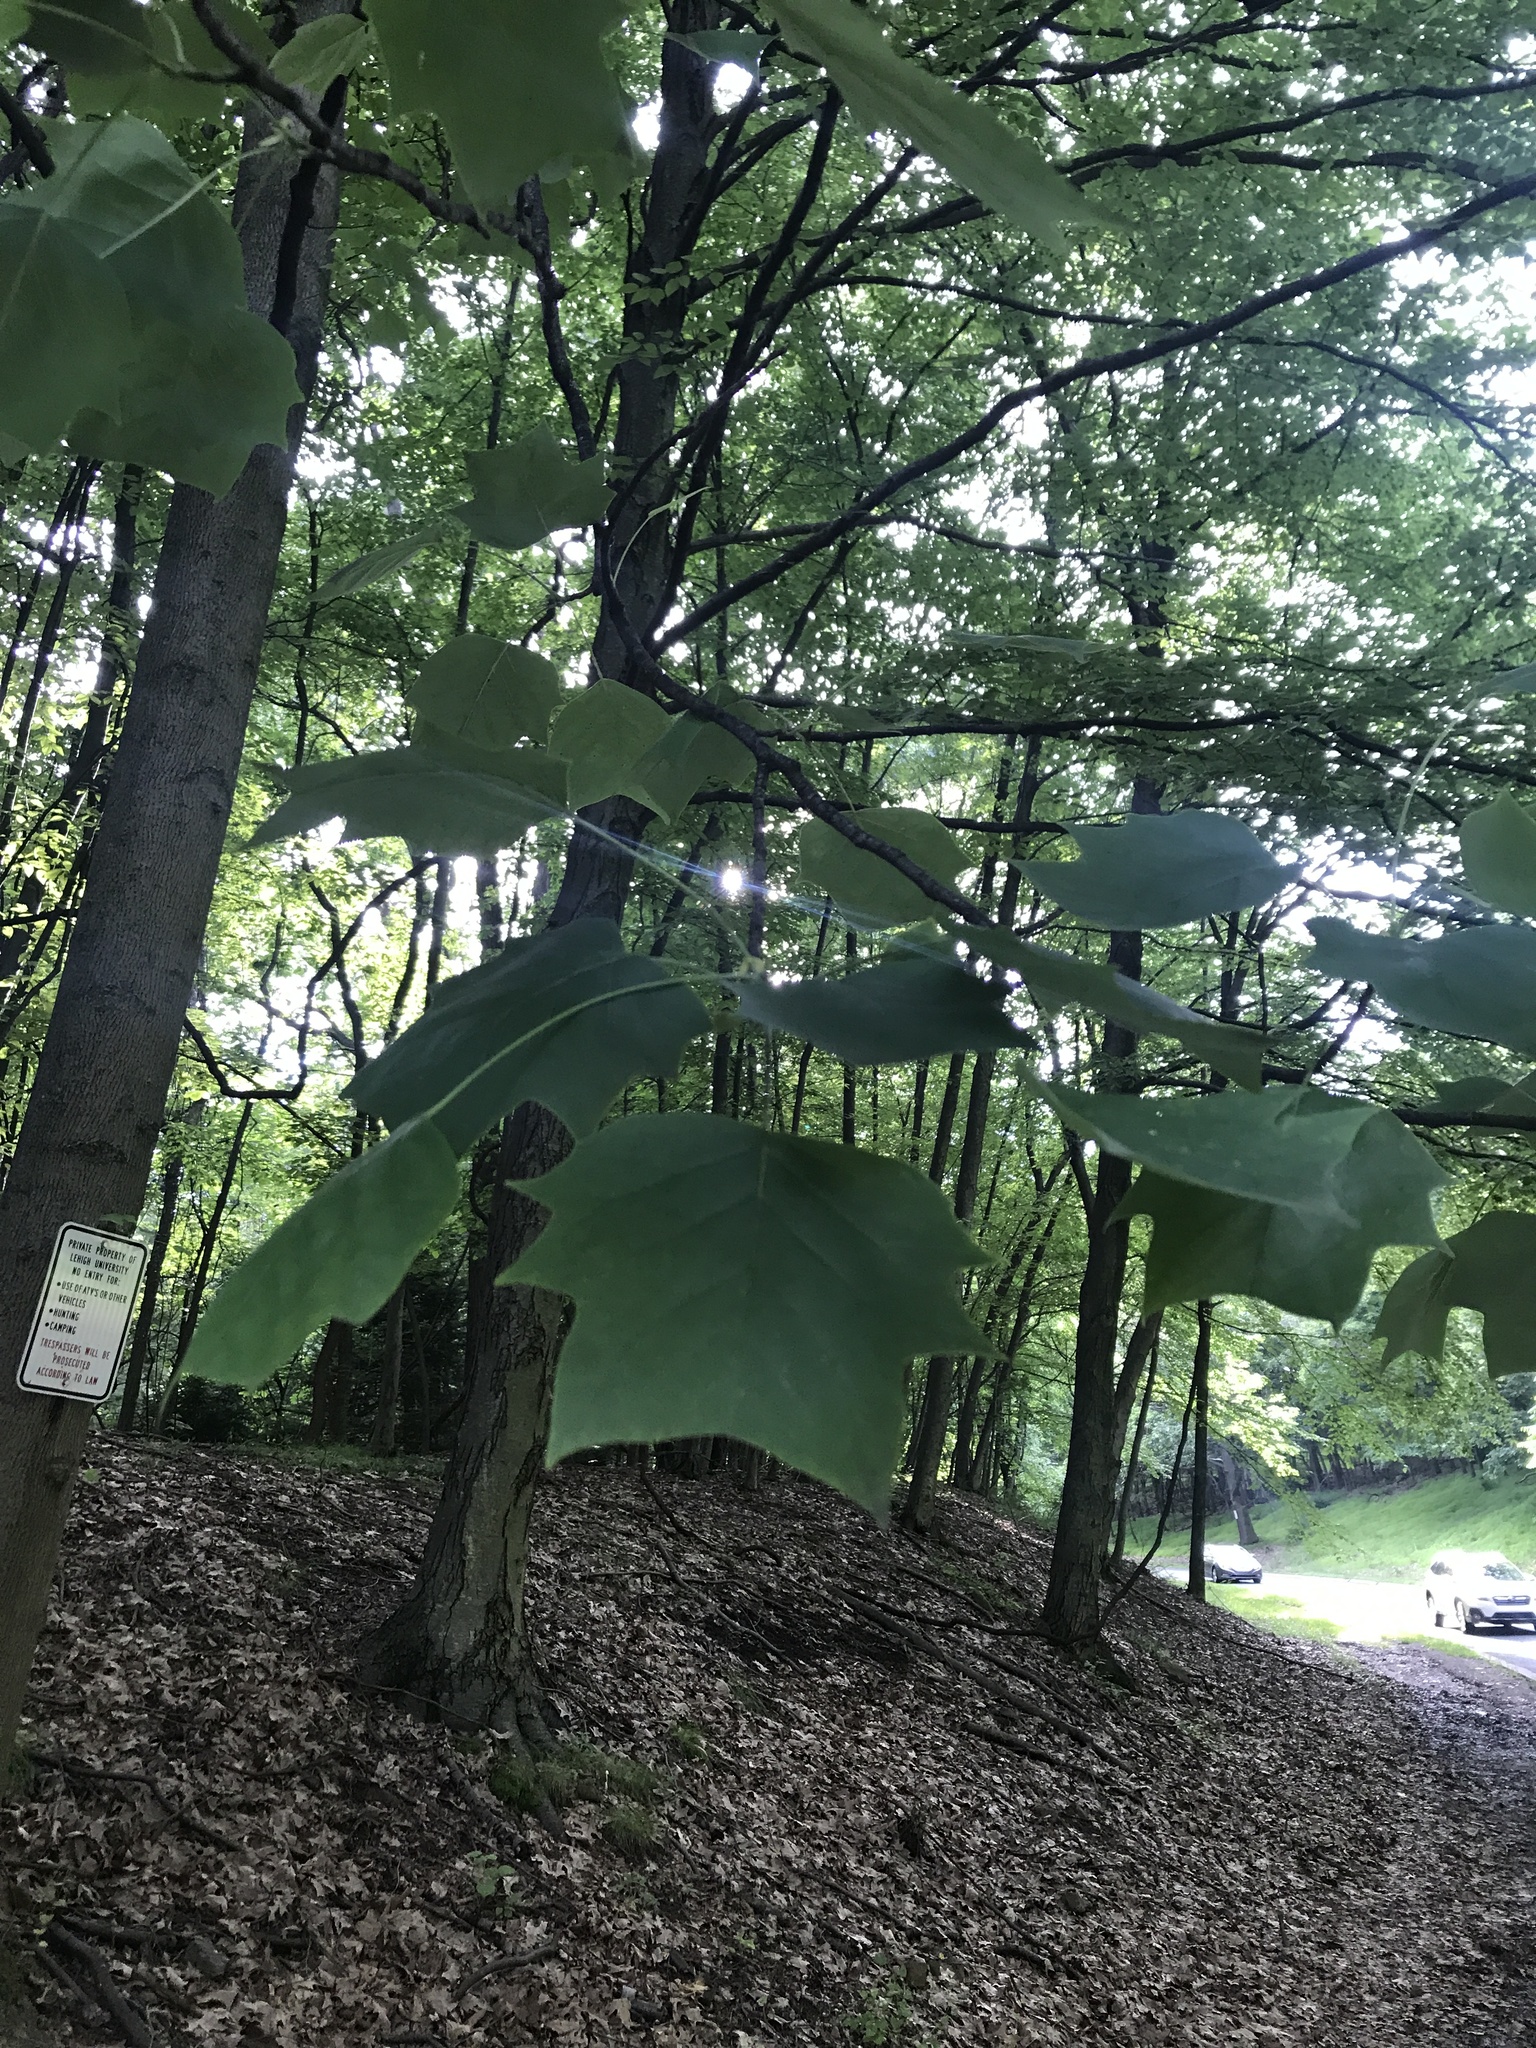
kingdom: Plantae
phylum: Tracheophyta
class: Magnoliopsida
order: Magnoliales
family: Magnoliaceae
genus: Liriodendron
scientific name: Liriodendron tulipifera
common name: Tulip tree
